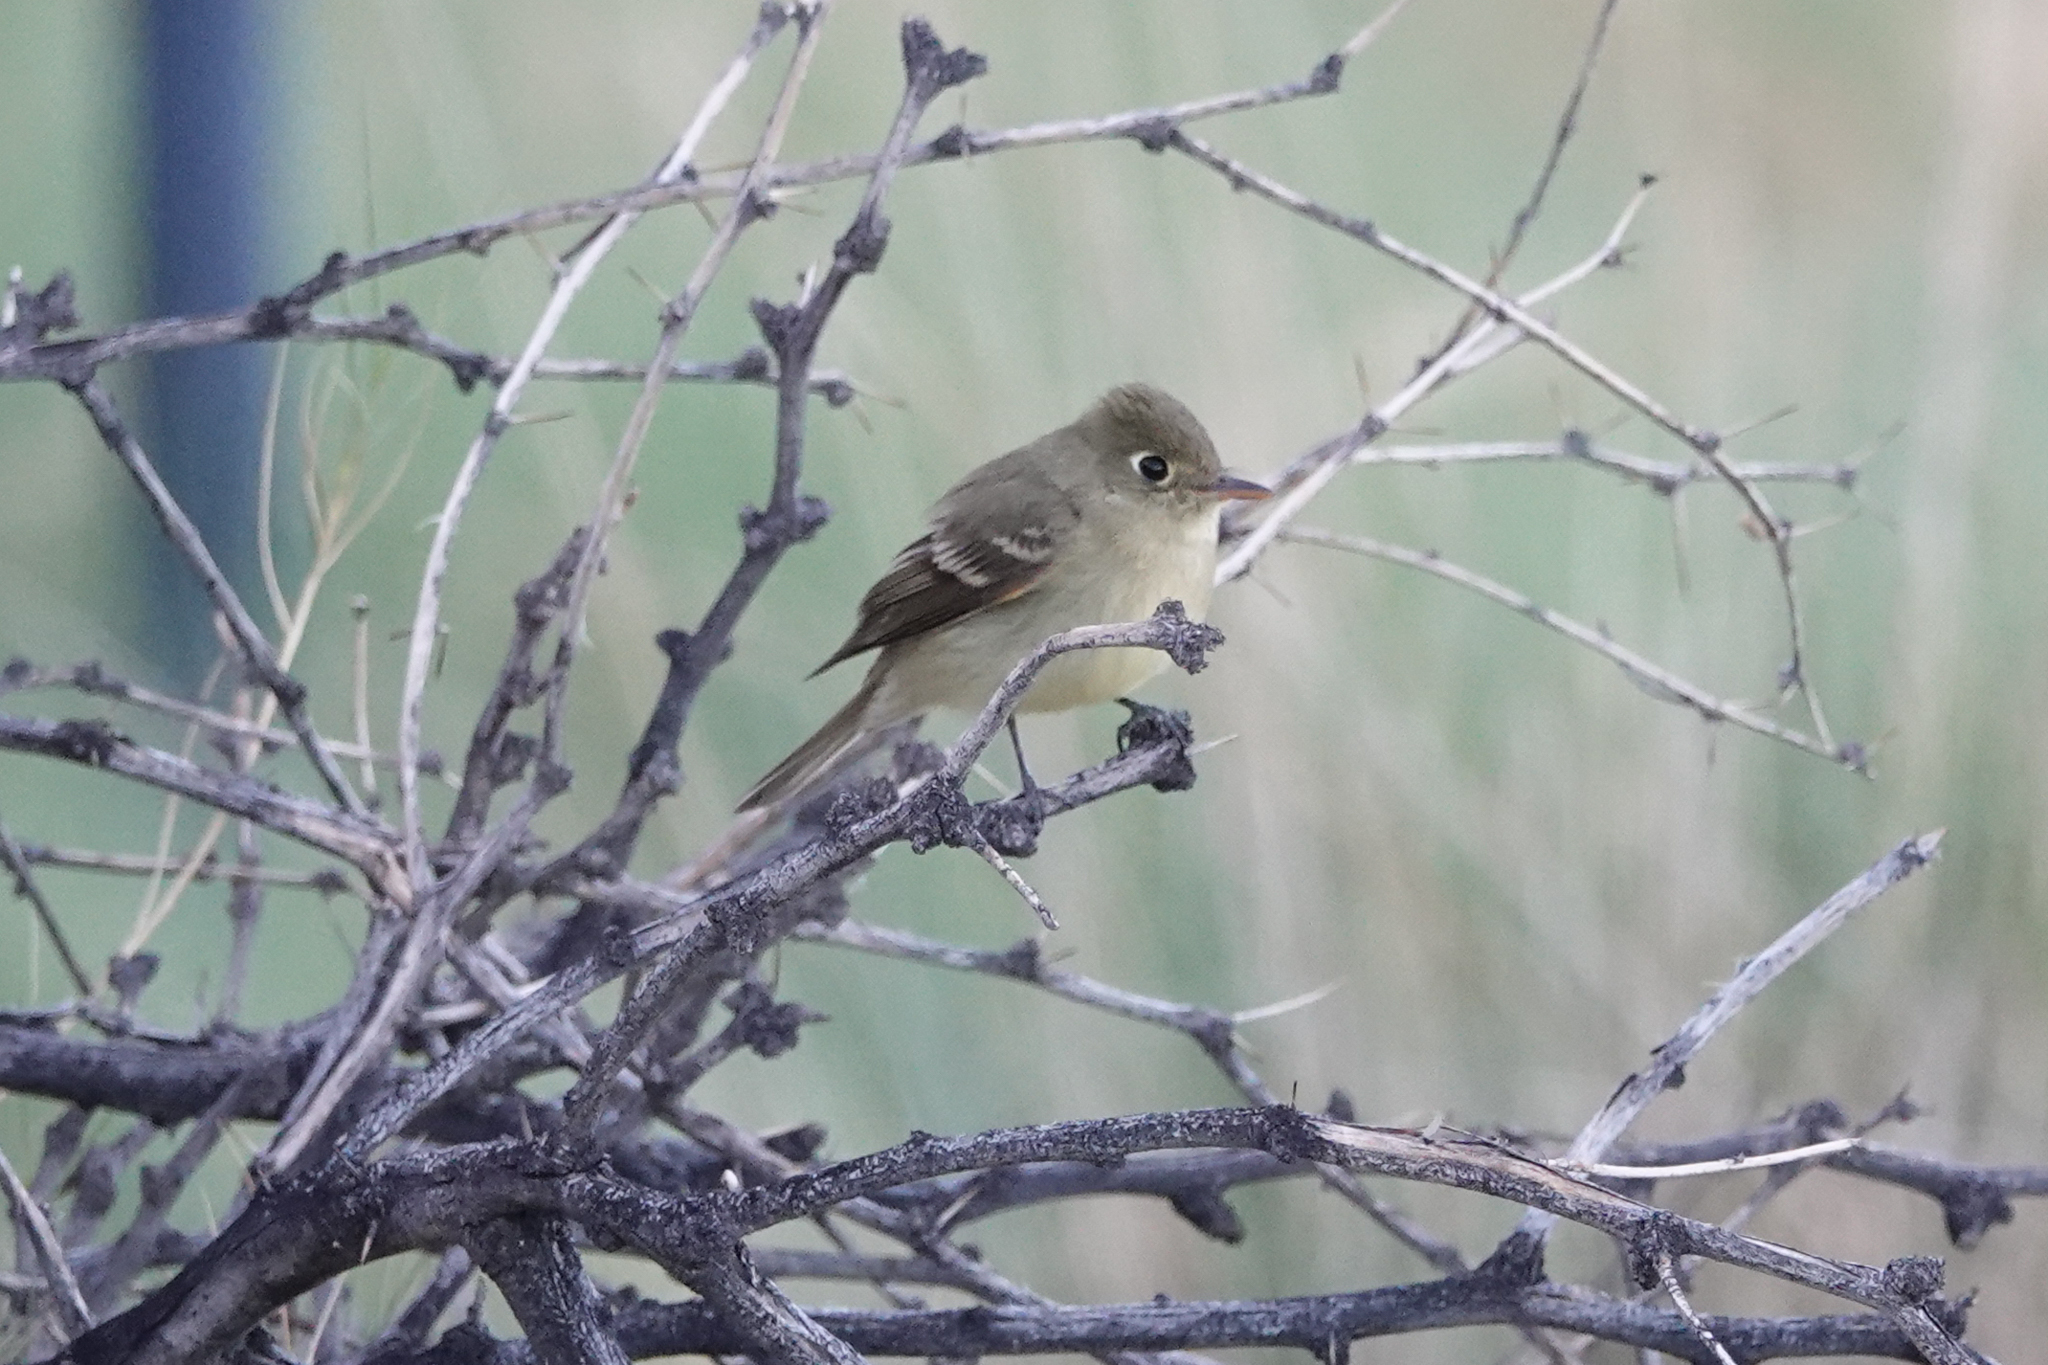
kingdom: Animalia
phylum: Chordata
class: Aves
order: Passeriformes
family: Tyrannidae
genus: Empidonax
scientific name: Empidonax
